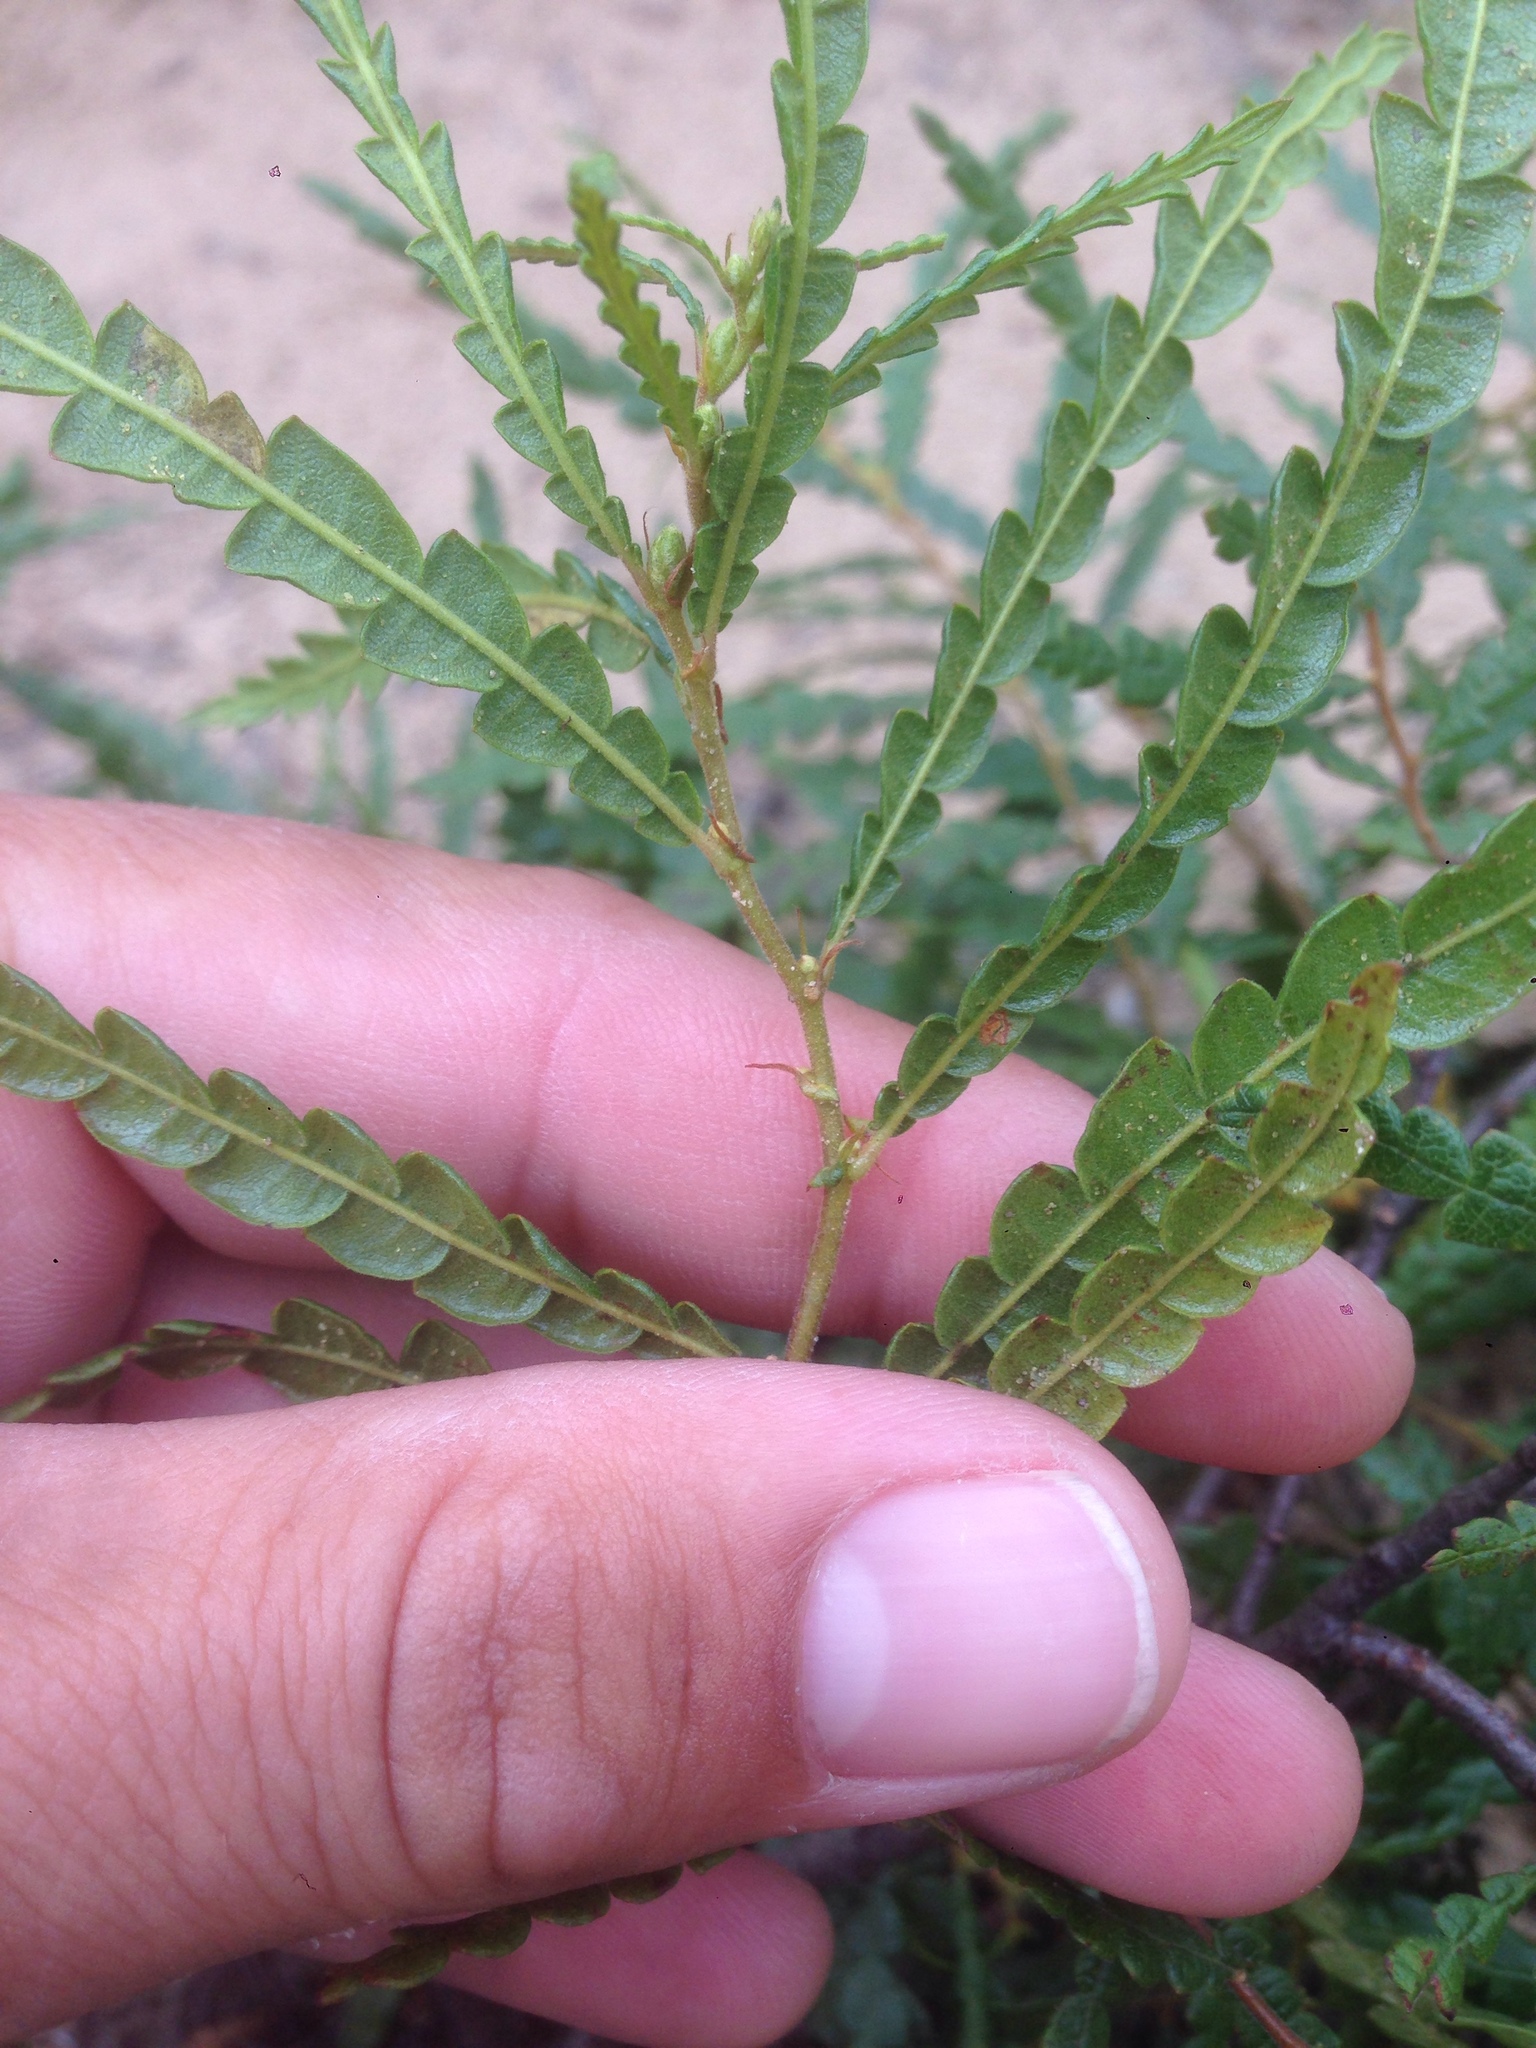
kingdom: Plantae
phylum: Tracheophyta
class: Magnoliopsida
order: Fagales
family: Myricaceae
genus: Comptonia
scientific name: Comptonia peregrina
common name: Sweet-fern
